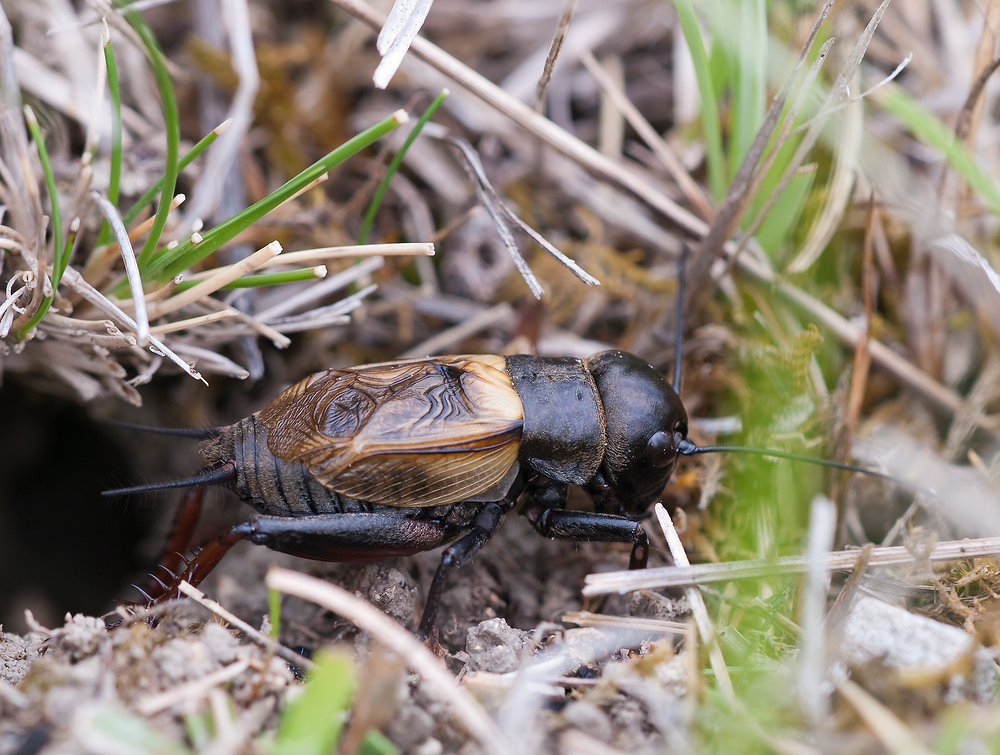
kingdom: Animalia
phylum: Arthropoda
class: Insecta
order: Orthoptera
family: Gryllidae
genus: Gryllus
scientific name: Gryllus campestris
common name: Field cricket
